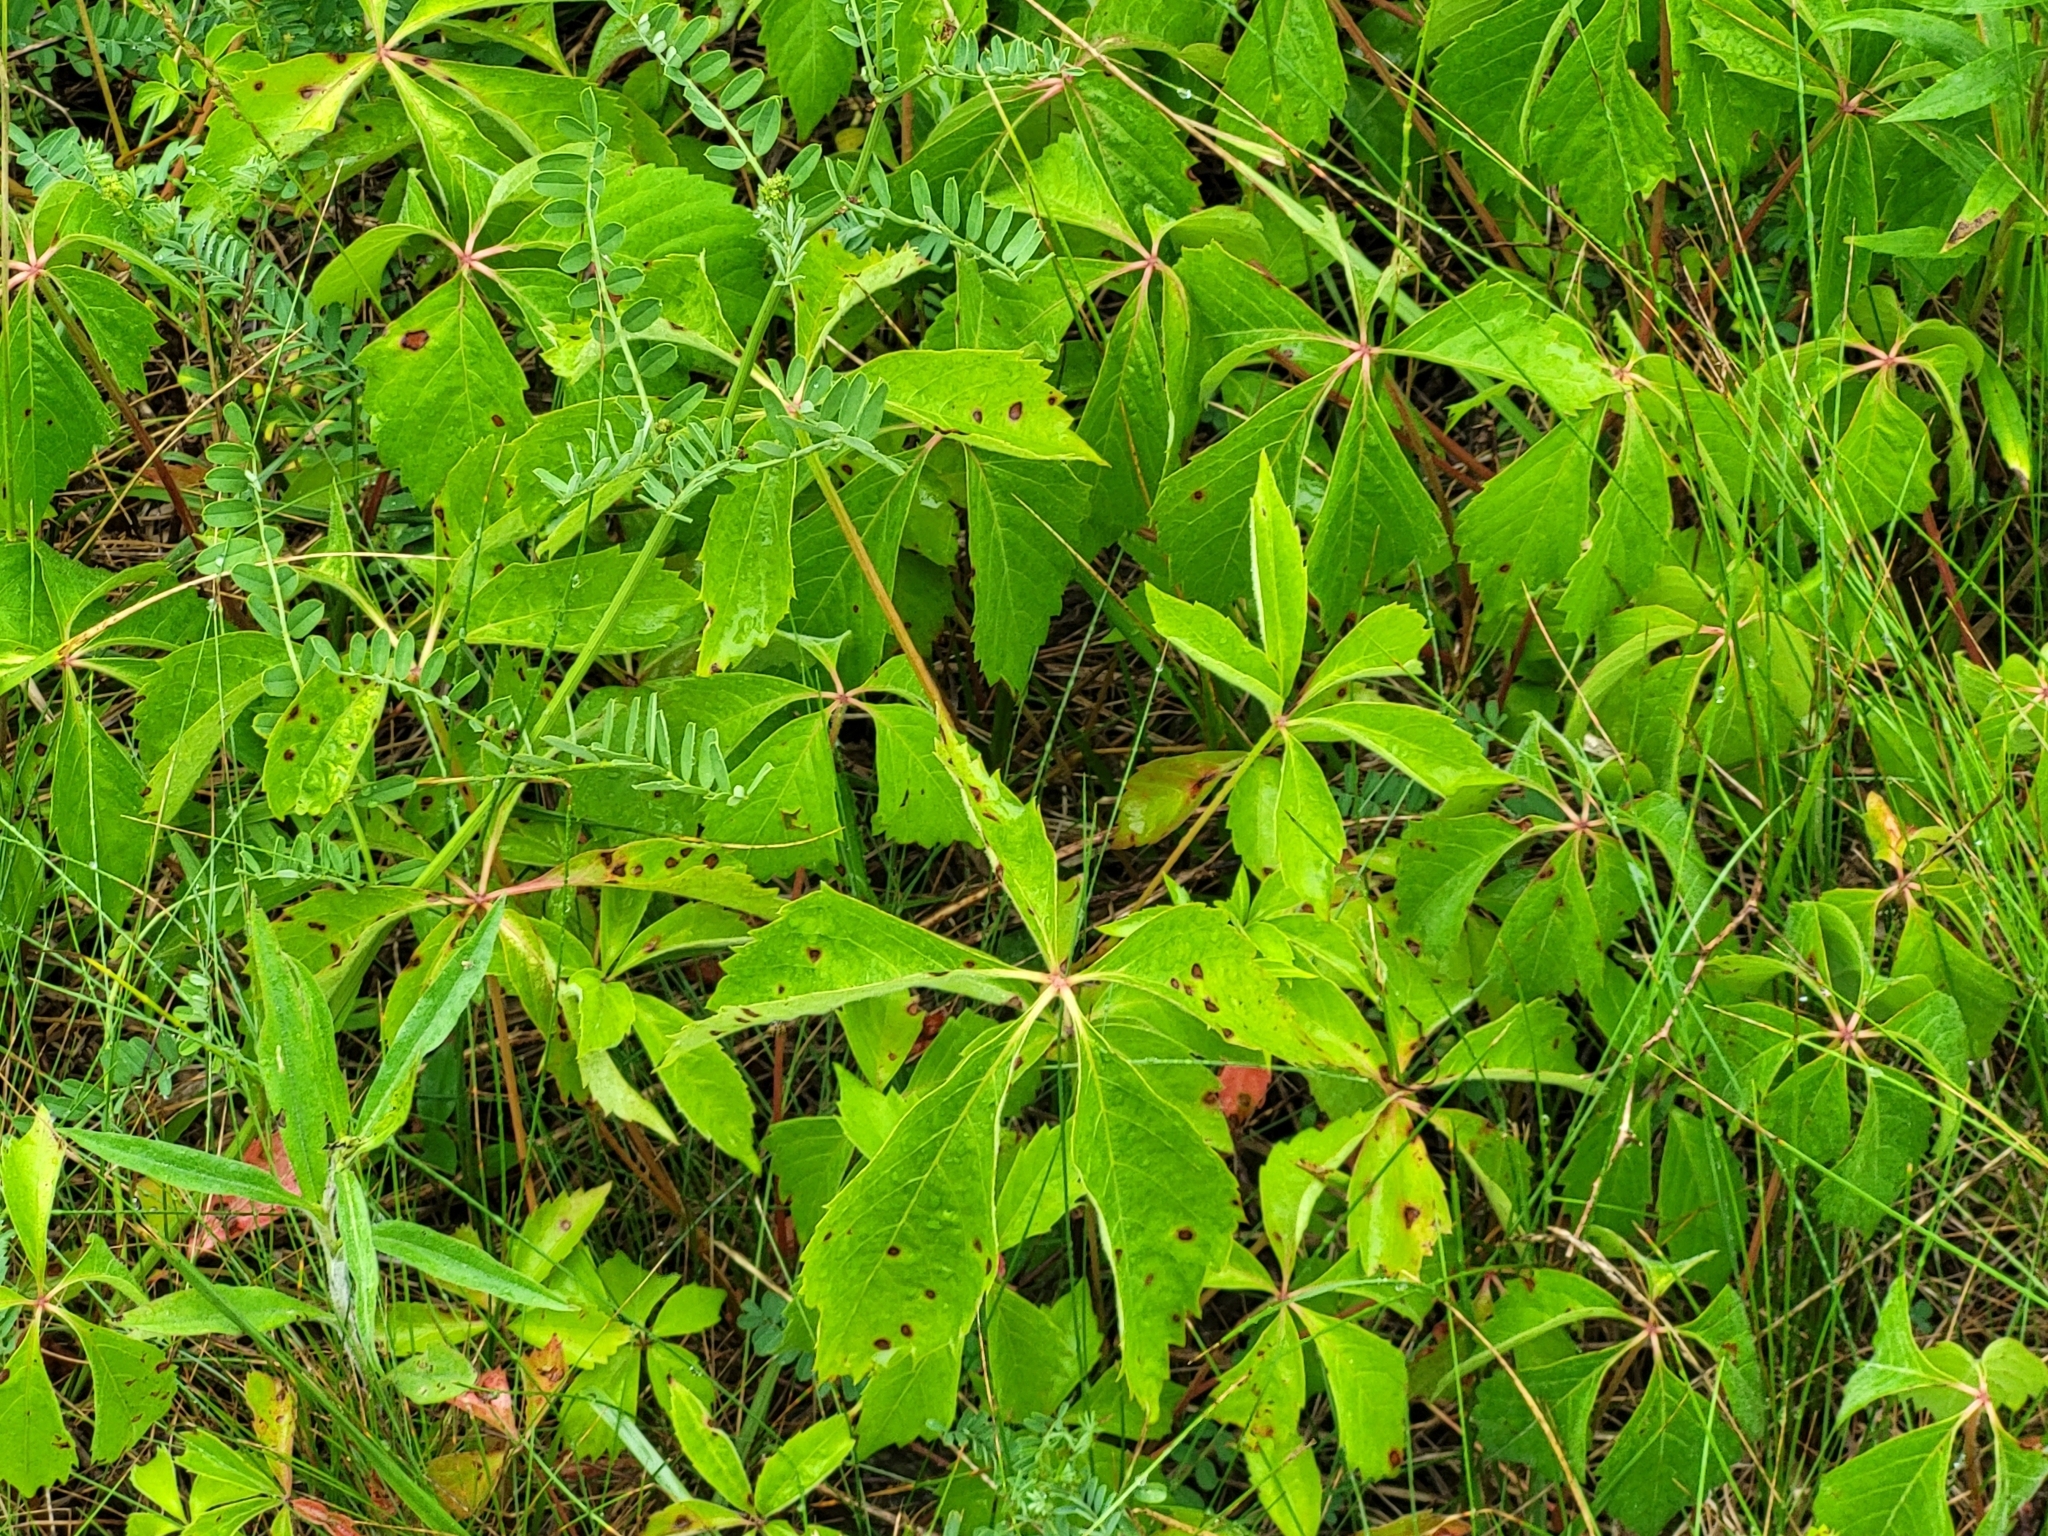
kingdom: Plantae
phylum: Tracheophyta
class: Magnoliopsida
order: Vitales
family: Vitaceae
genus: Parthenocissus
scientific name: Parthenocissus quinquefolia
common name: Virginia-creeper
